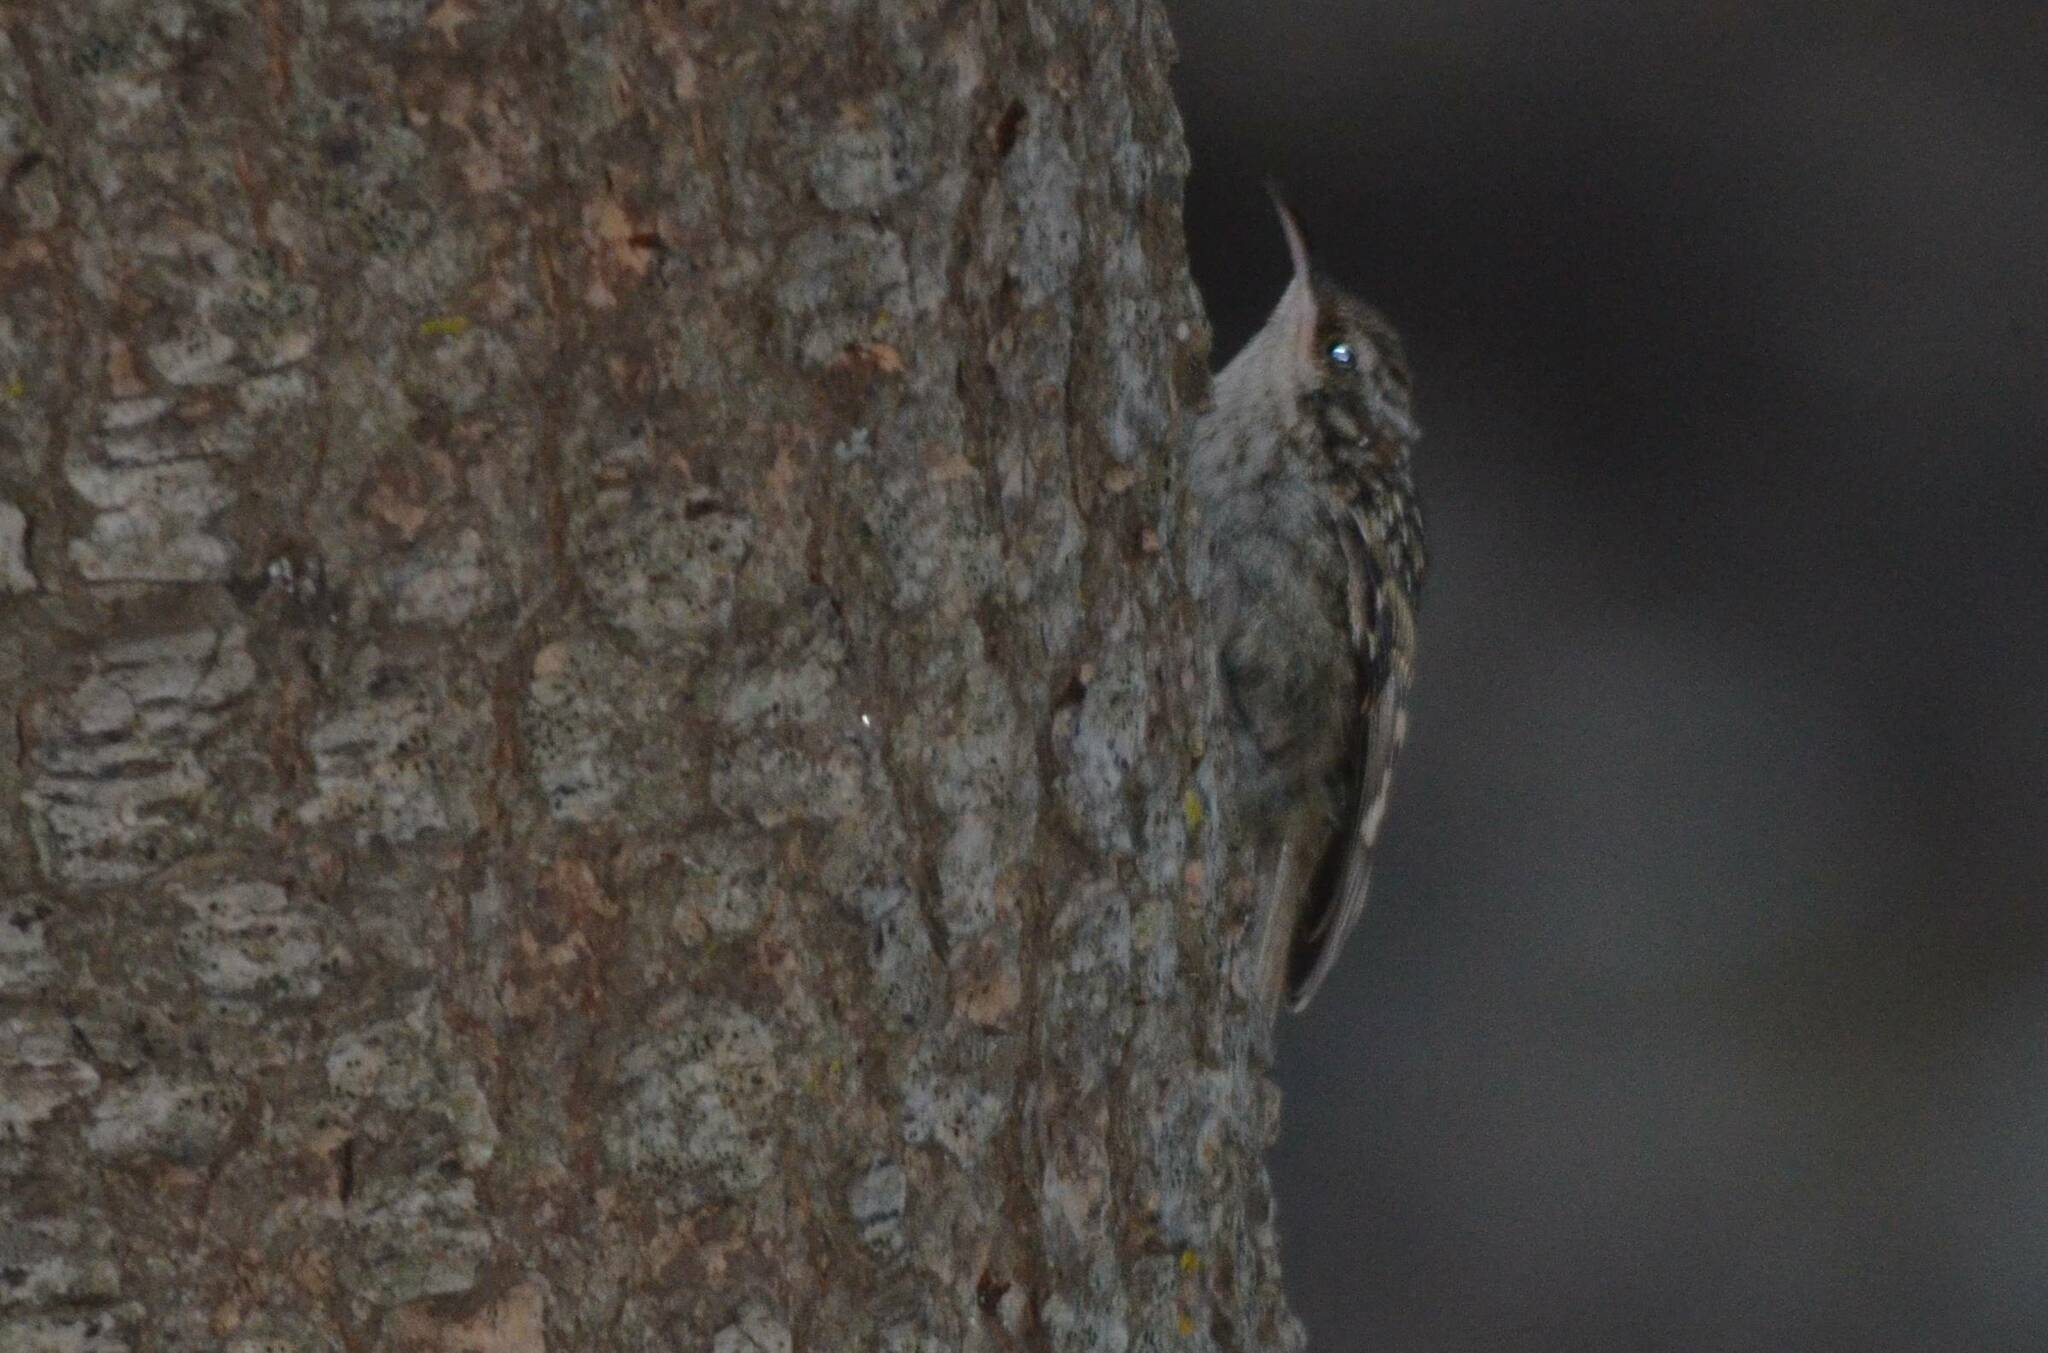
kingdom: Animalia
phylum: Chordata
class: Aves
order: Passeriformes
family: Certhiidae
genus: Certhia
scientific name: Certhia brachydactyla
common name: Short-toed treecreeper
